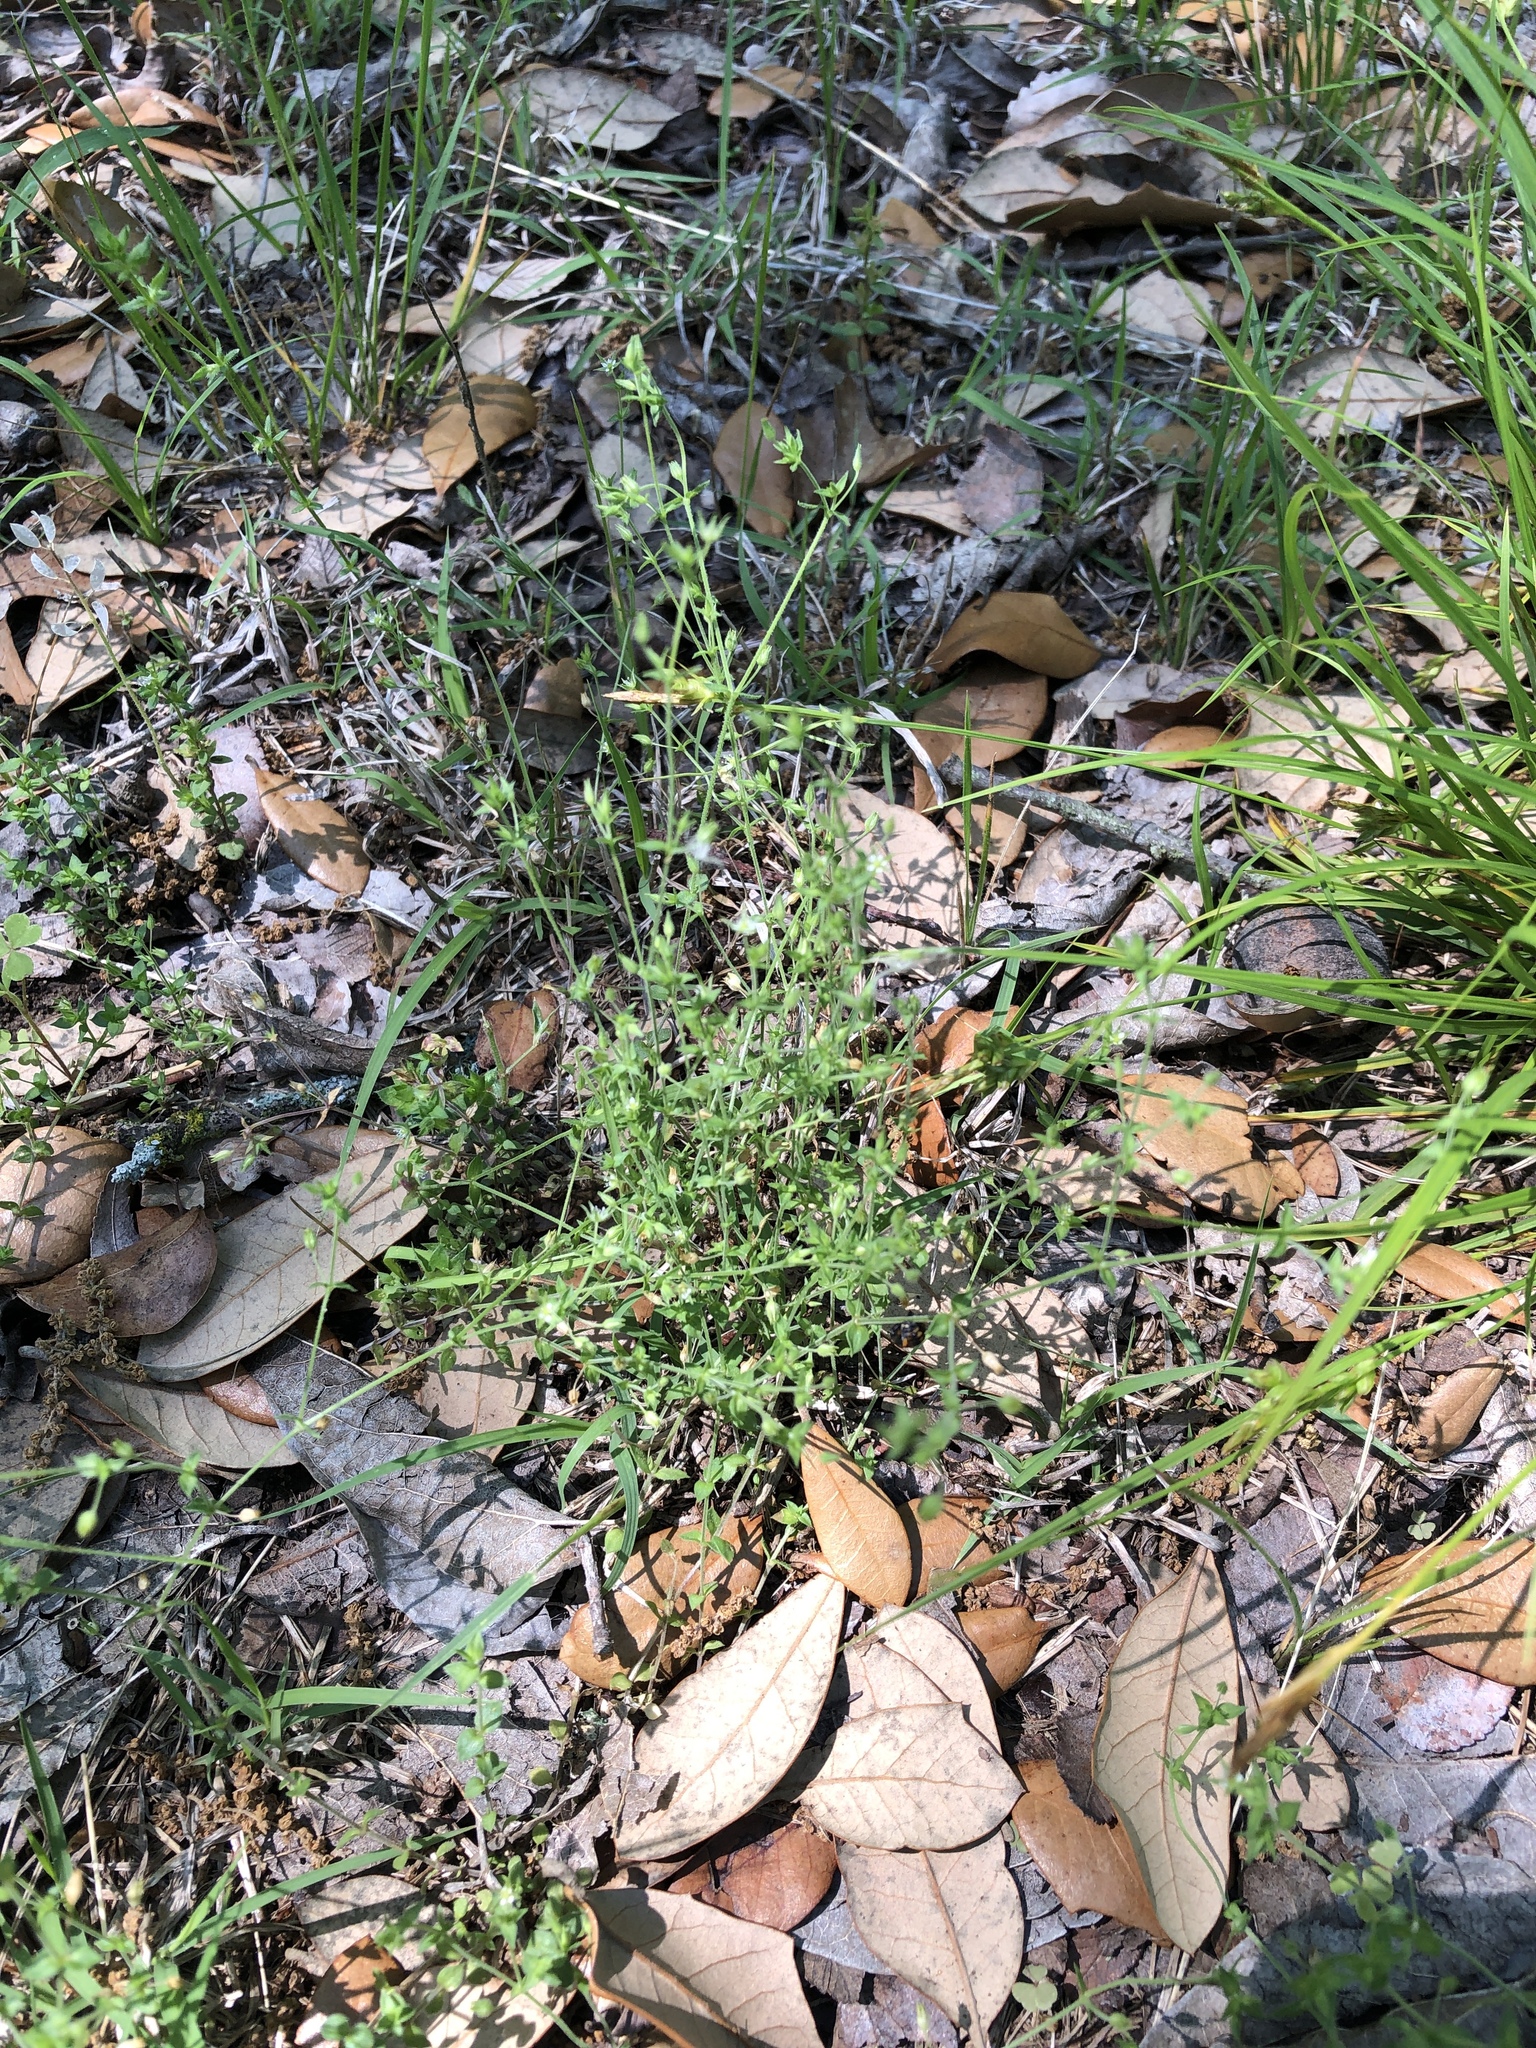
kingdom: Plantae
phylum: Tracheophyta
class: Magnoliopsida
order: Caryophyllales
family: Caryophyllaceae
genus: Arenaria
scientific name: Arenaria serpyllifolia
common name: Thyme-leaved sandwort
